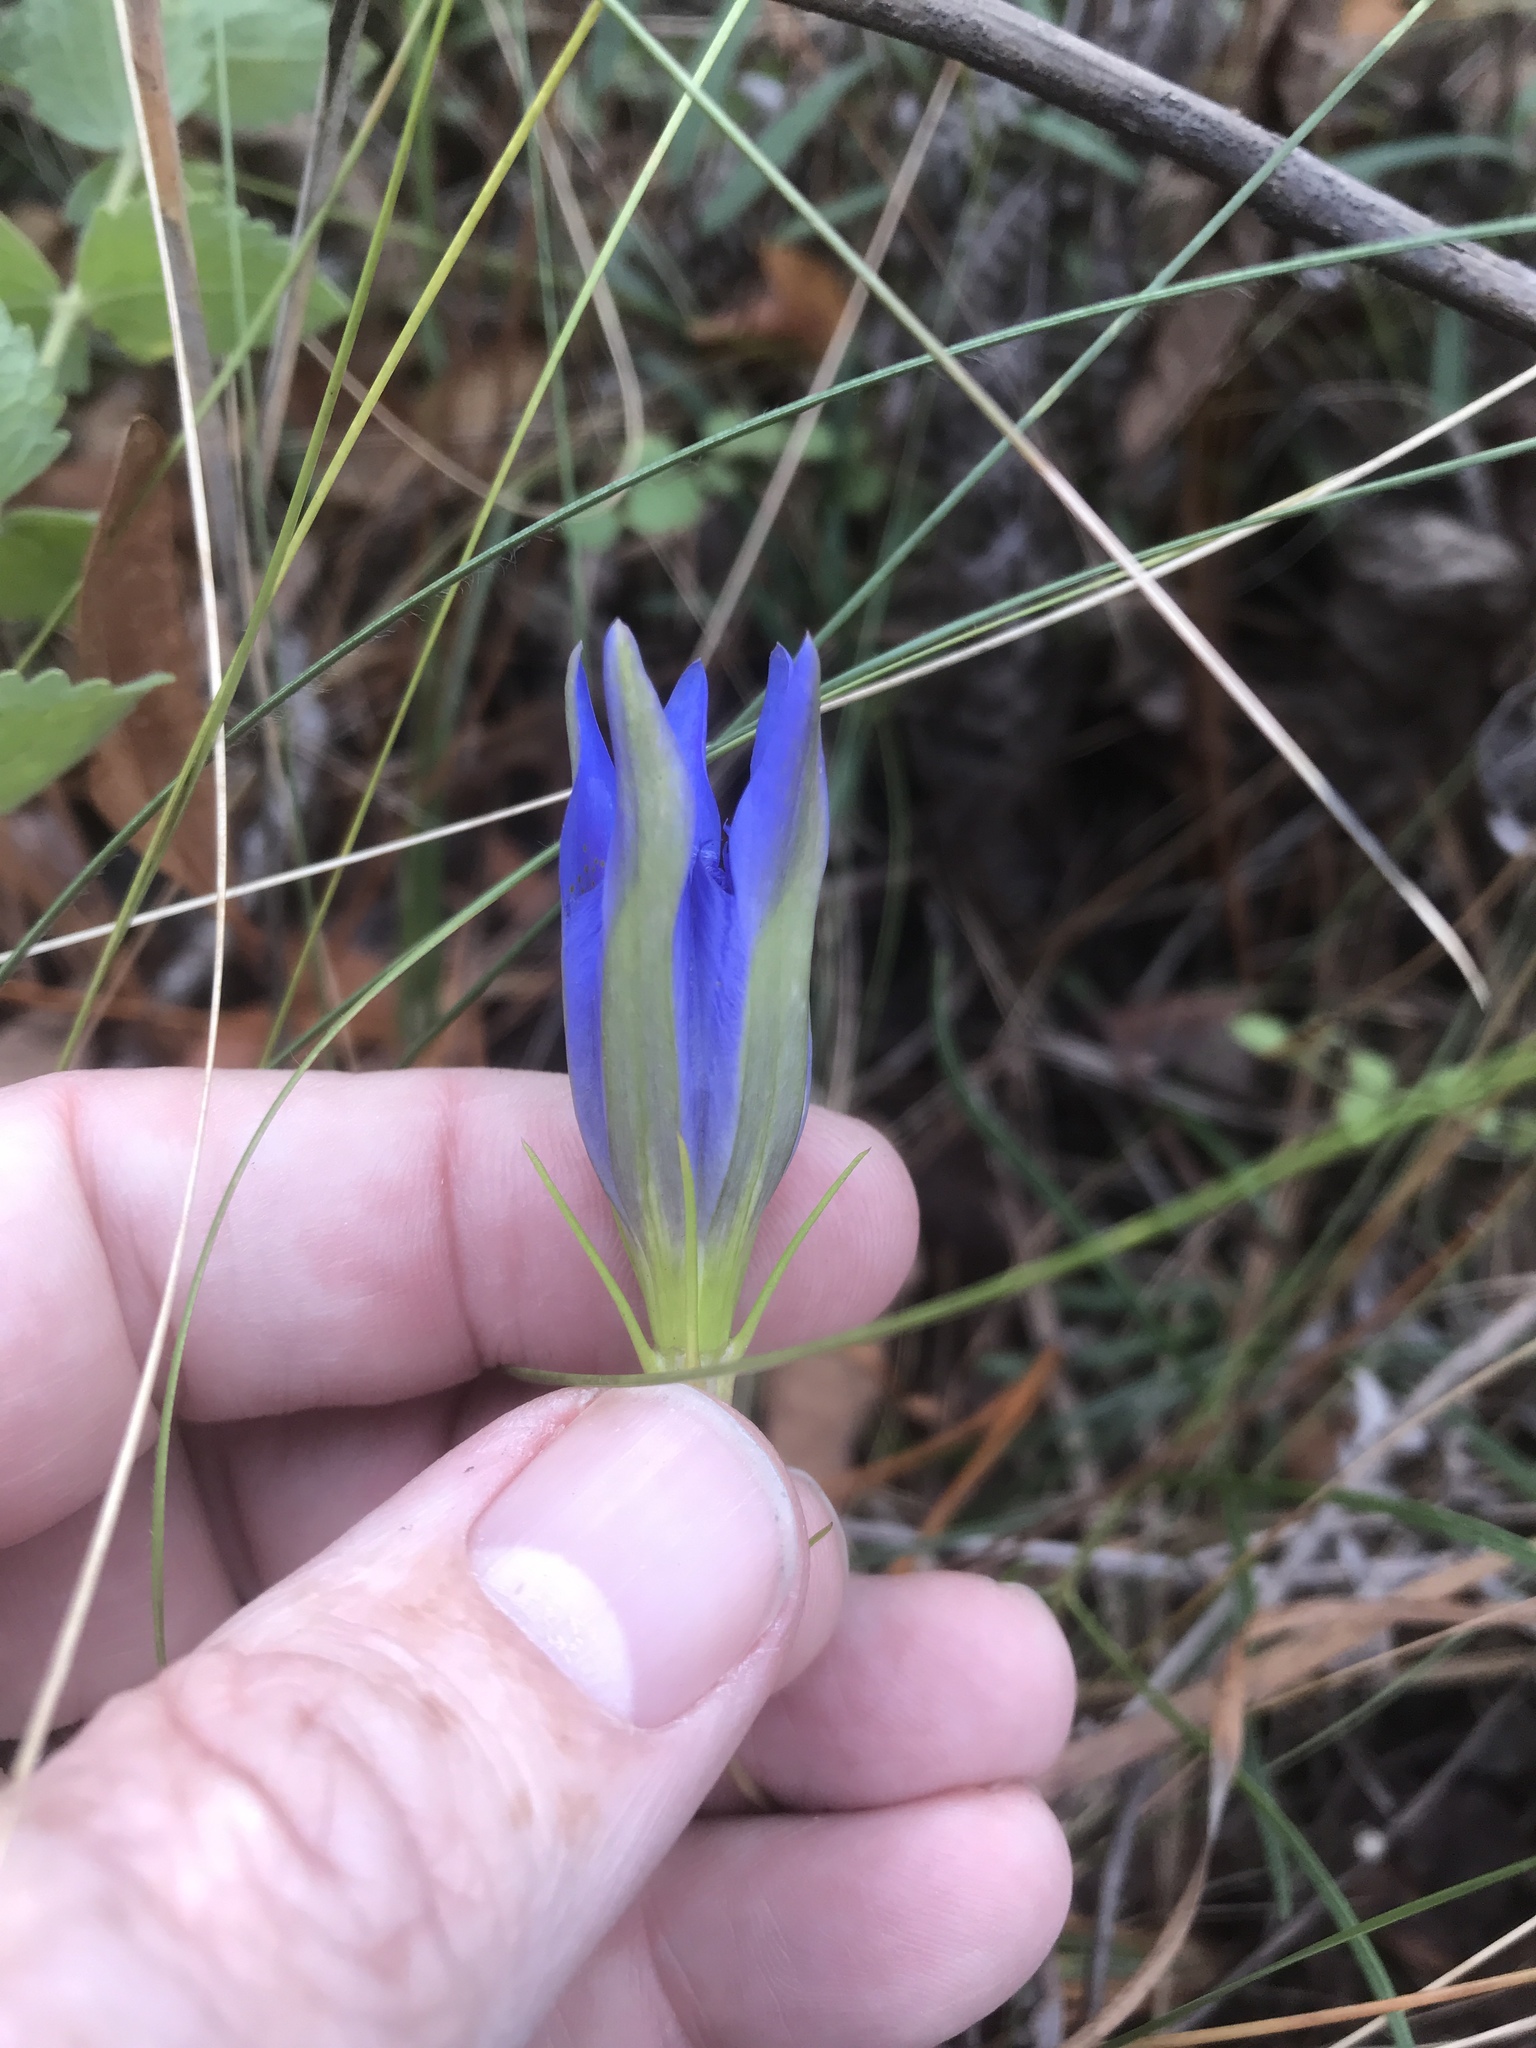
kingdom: Plantae
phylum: Tracheophyta
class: Magnoliopsida
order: Gentianales
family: Gentianaceae
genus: Gentiana
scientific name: Gentiana autumnalis
